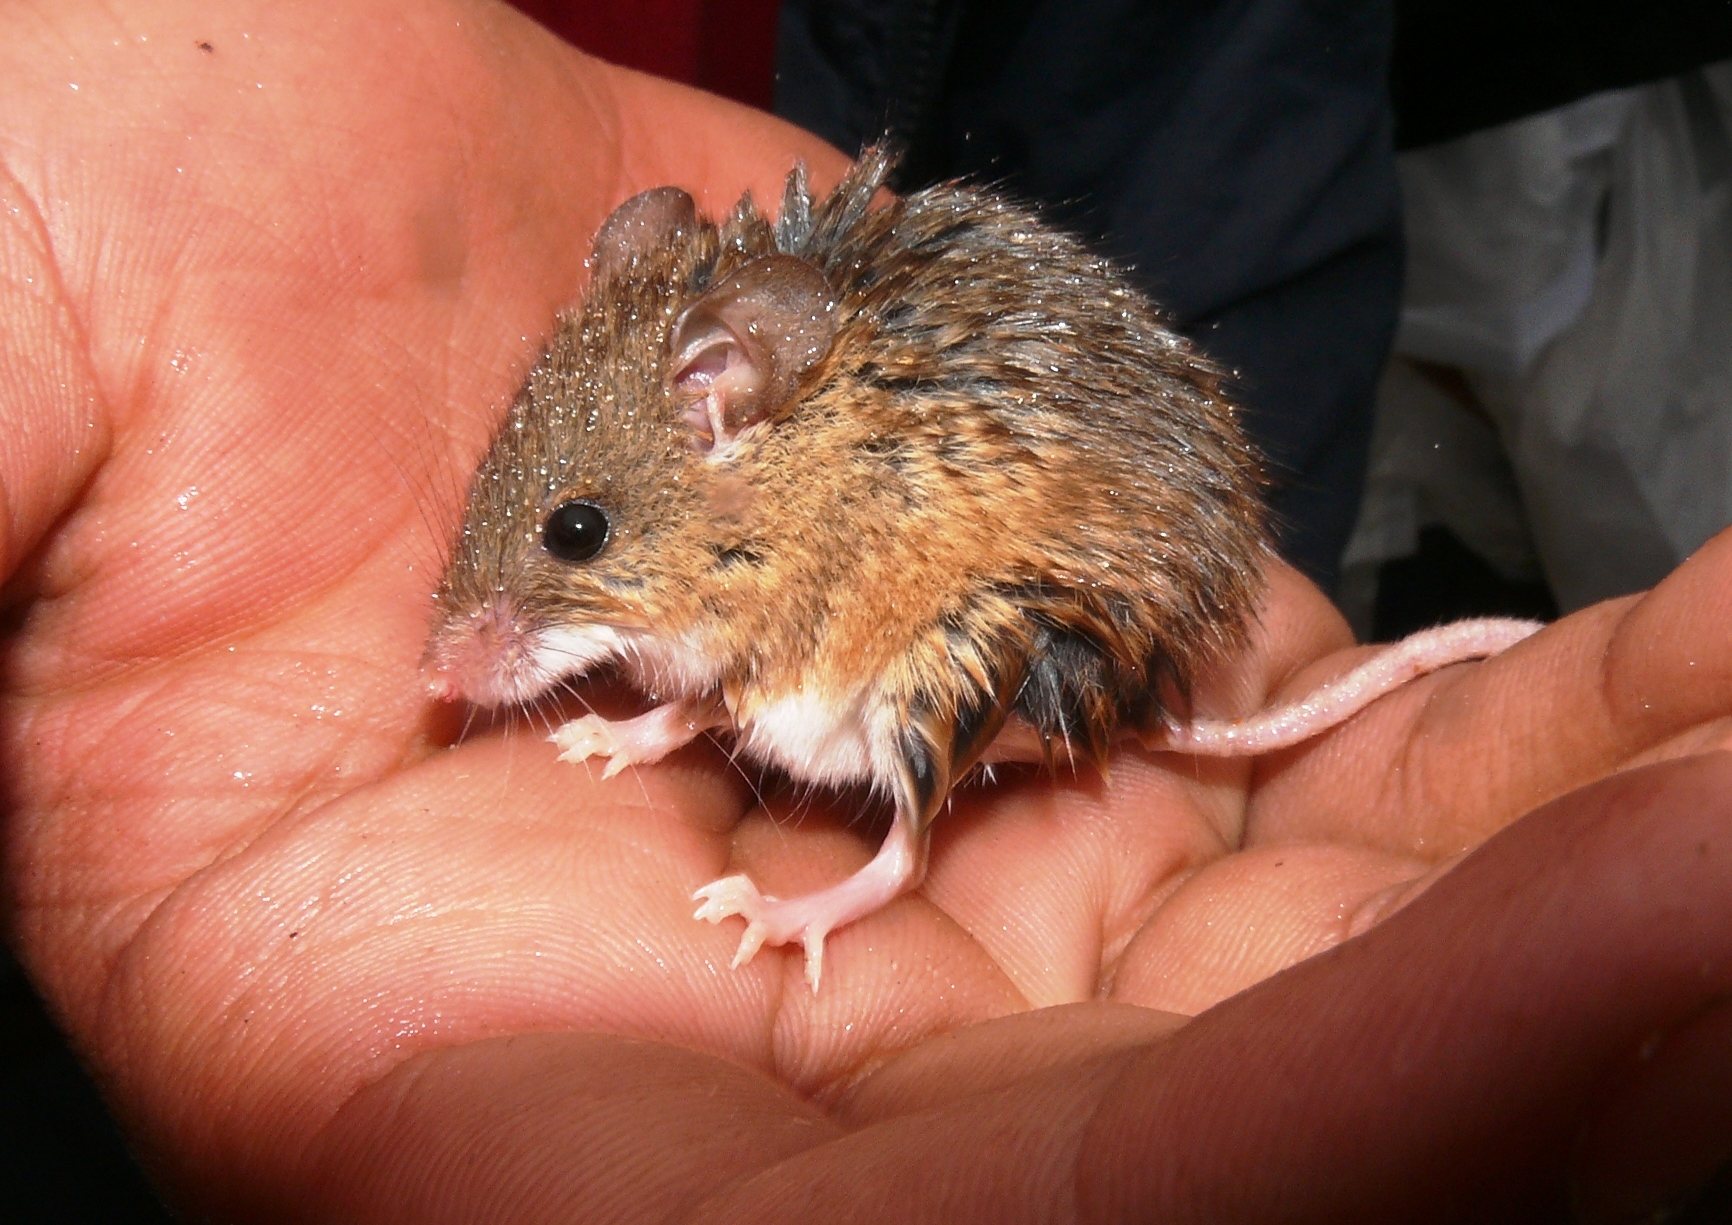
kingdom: Animalia
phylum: Chordata
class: Mammalia
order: Rodentia
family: Muridae
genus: Mus
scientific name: Mus minutoides
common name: Southern african pygmy mouse
